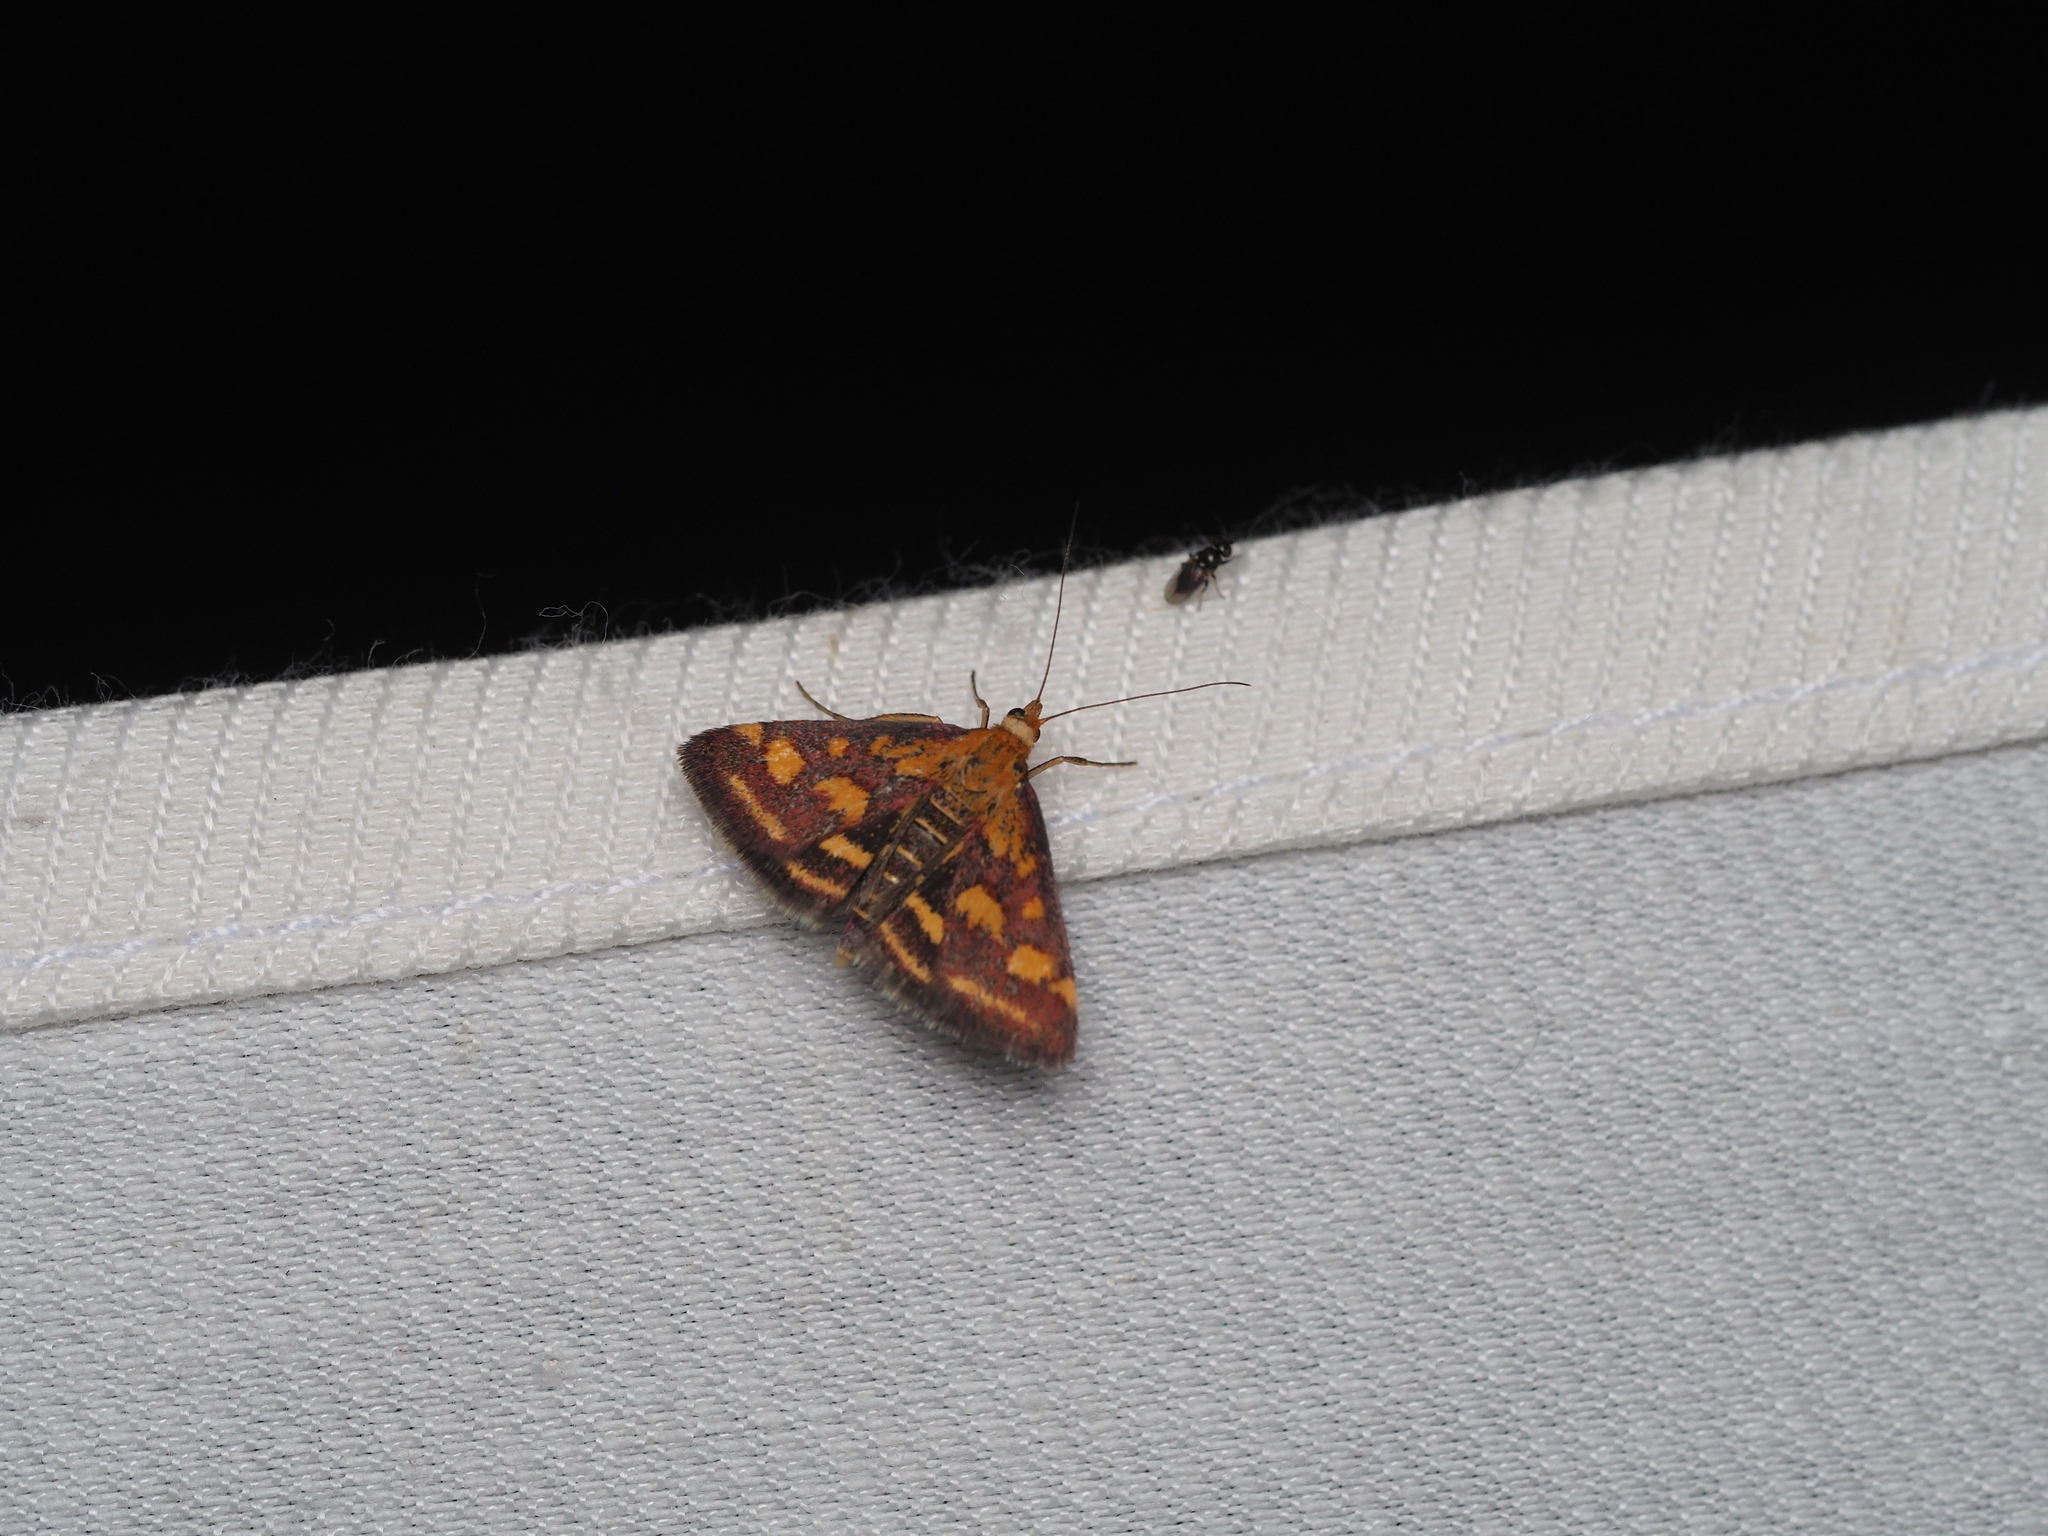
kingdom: Animalia
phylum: Arthropoda
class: Insecta
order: Lepidoptera
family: Crambidae
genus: Pyrausta
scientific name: Pyrausta purpuralis
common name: Common purple & gold
